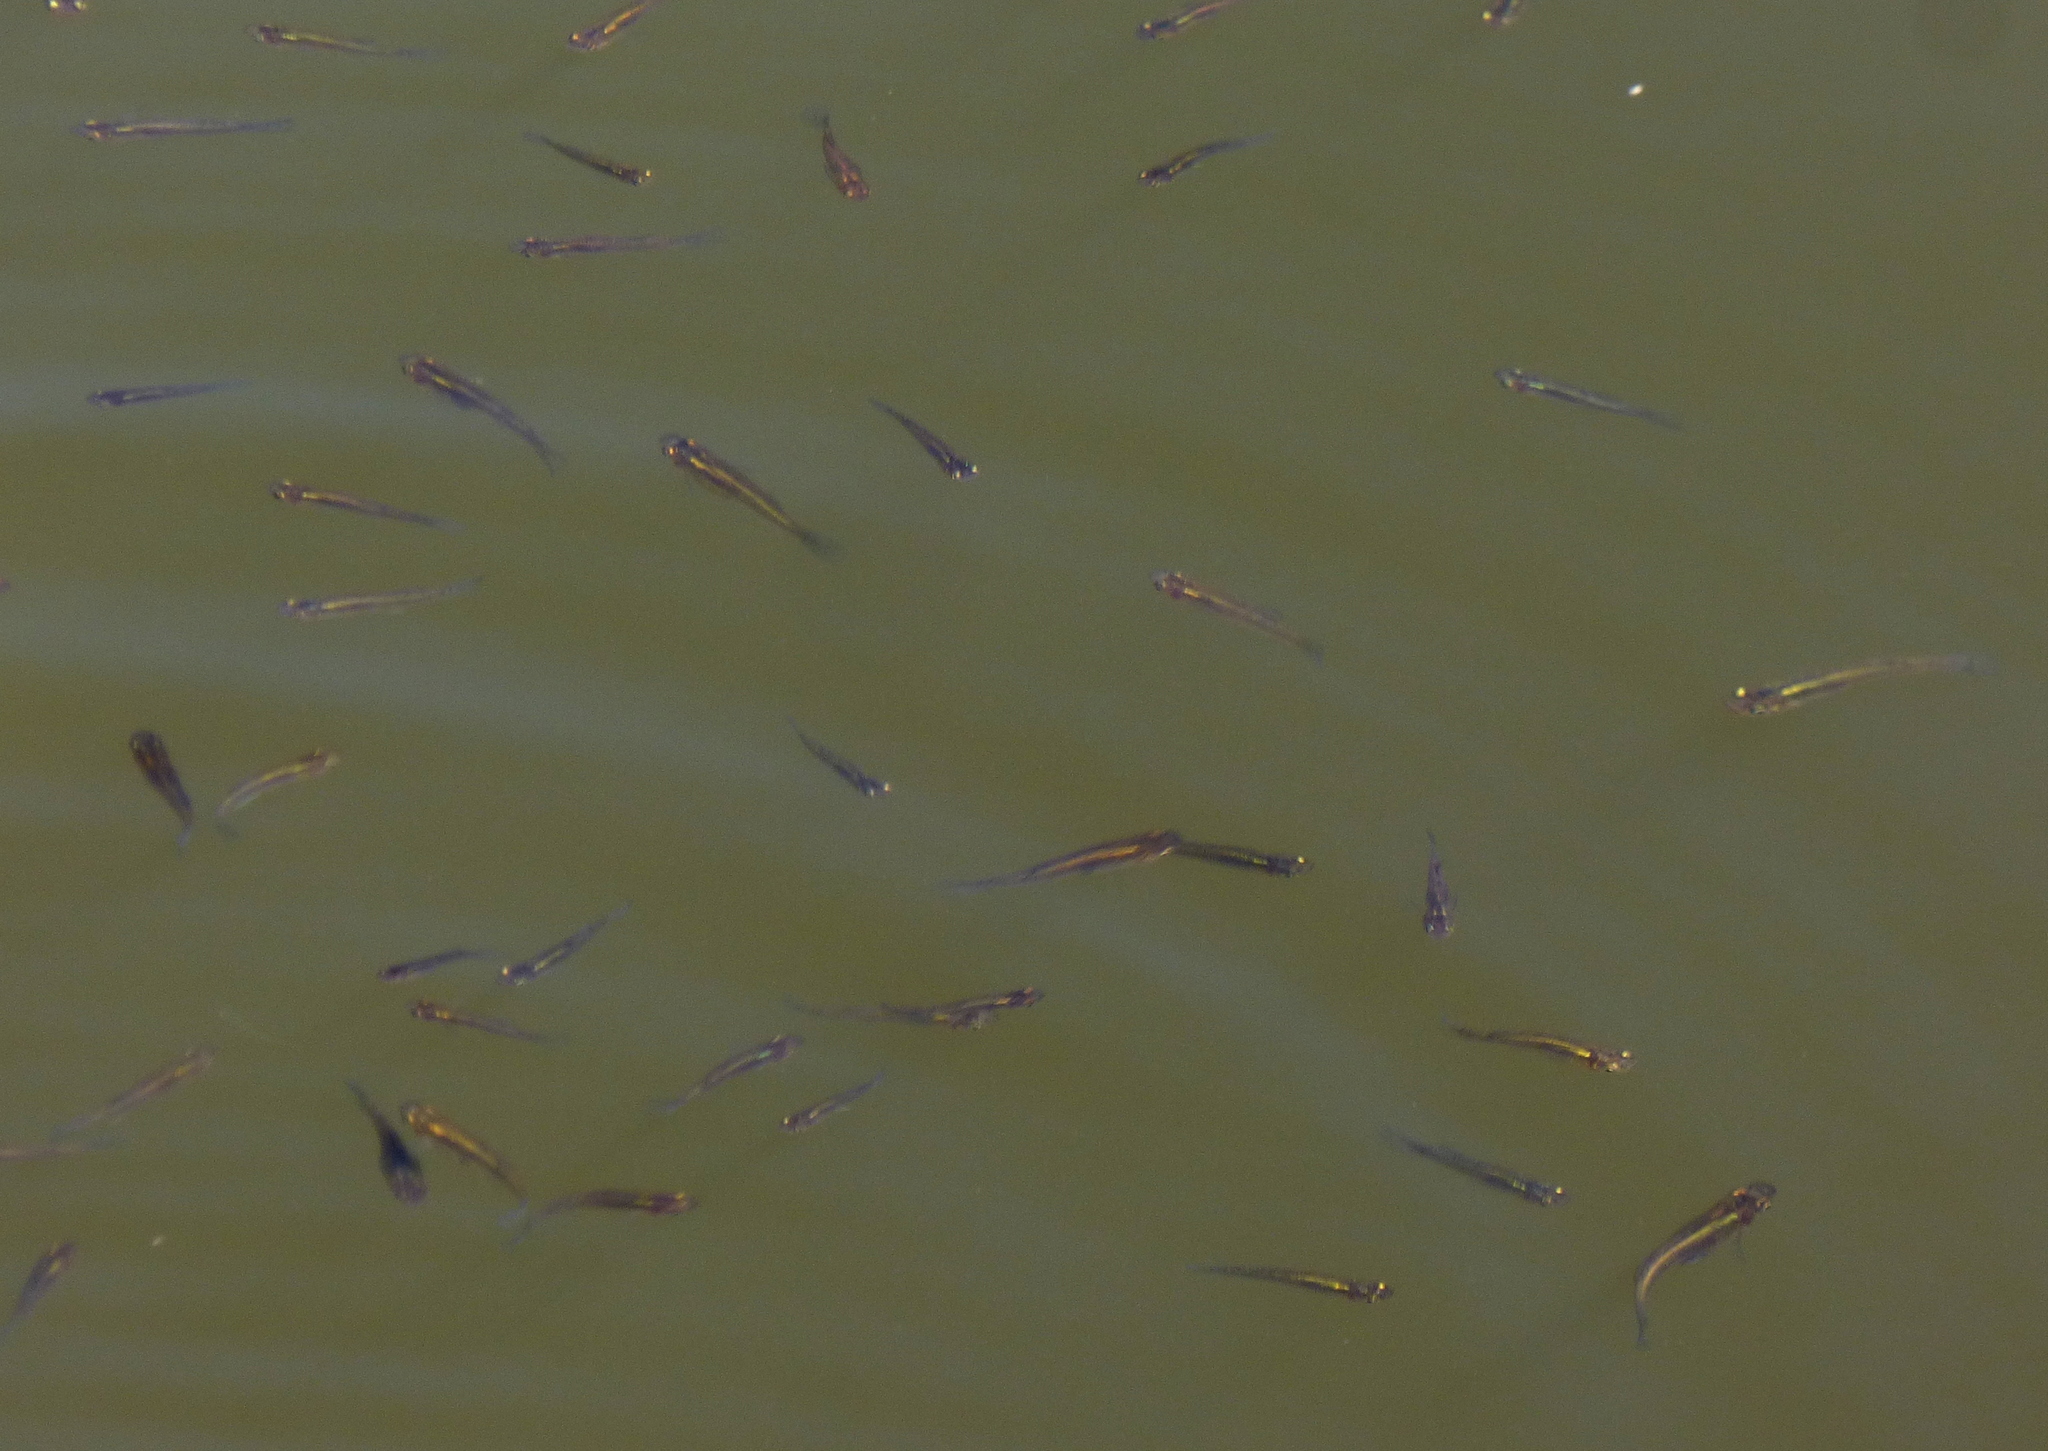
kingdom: Animalia
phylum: Chordata
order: Cyprinodontiformes
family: Poeciliidae
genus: Gambusia
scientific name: Gambusia affinis
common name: Mosquitofish
